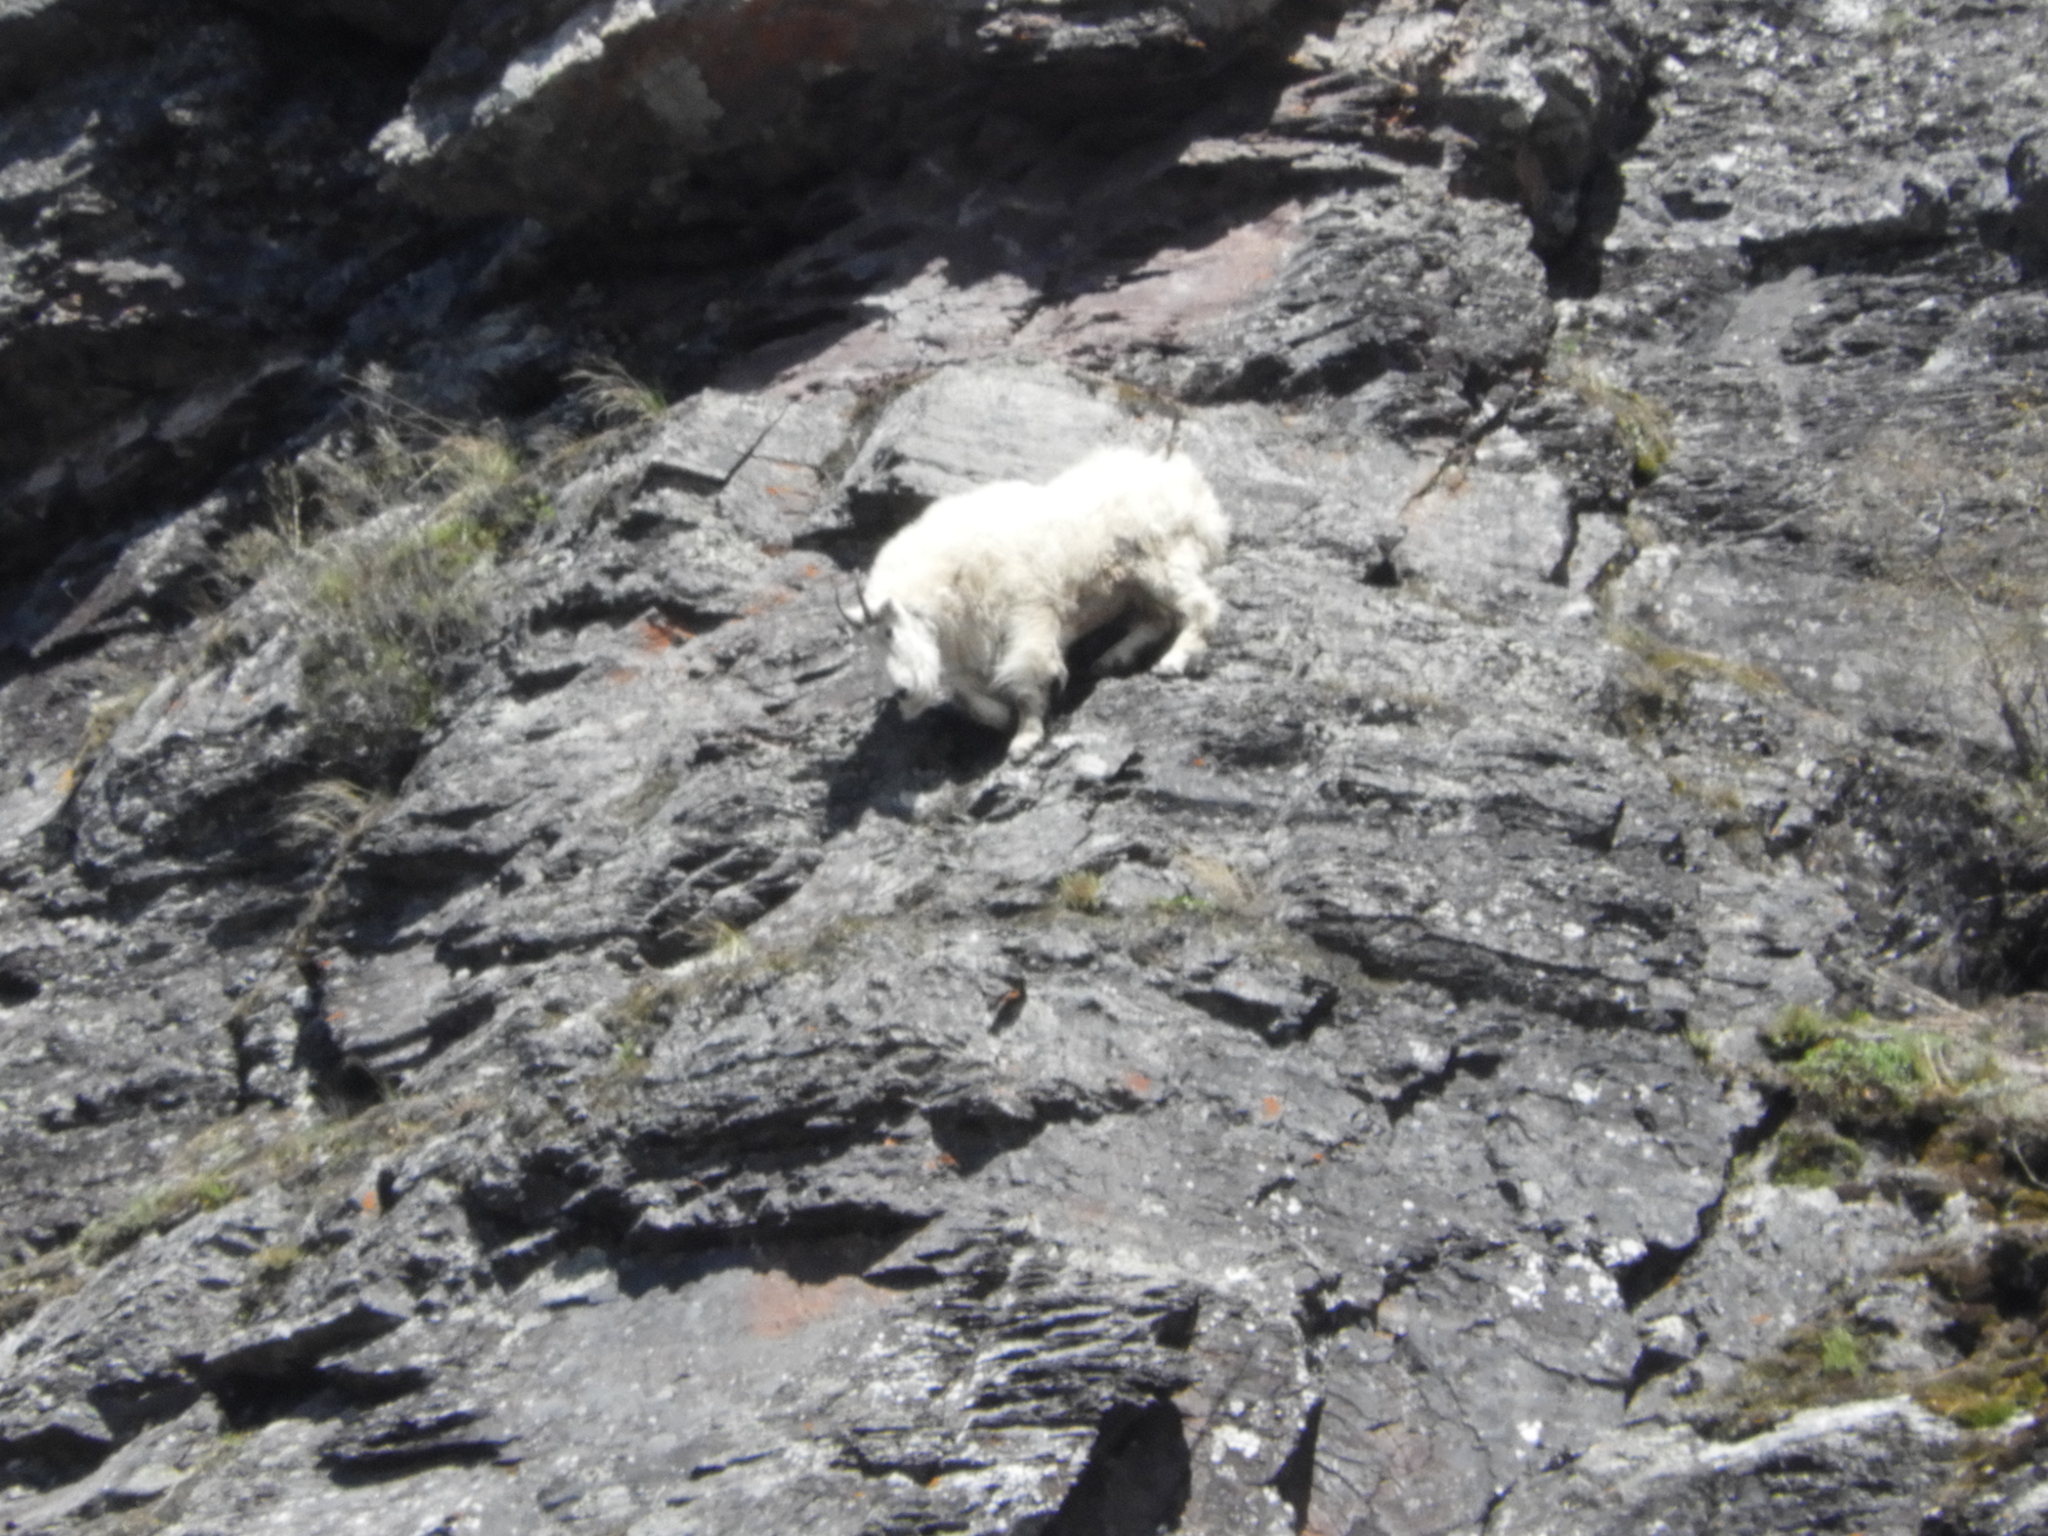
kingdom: Animalia
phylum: Chordata
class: Mammalia
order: Artiodactyla
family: Bovidae
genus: Oreamnos
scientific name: Oreamnos americanus
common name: Mountain goat
